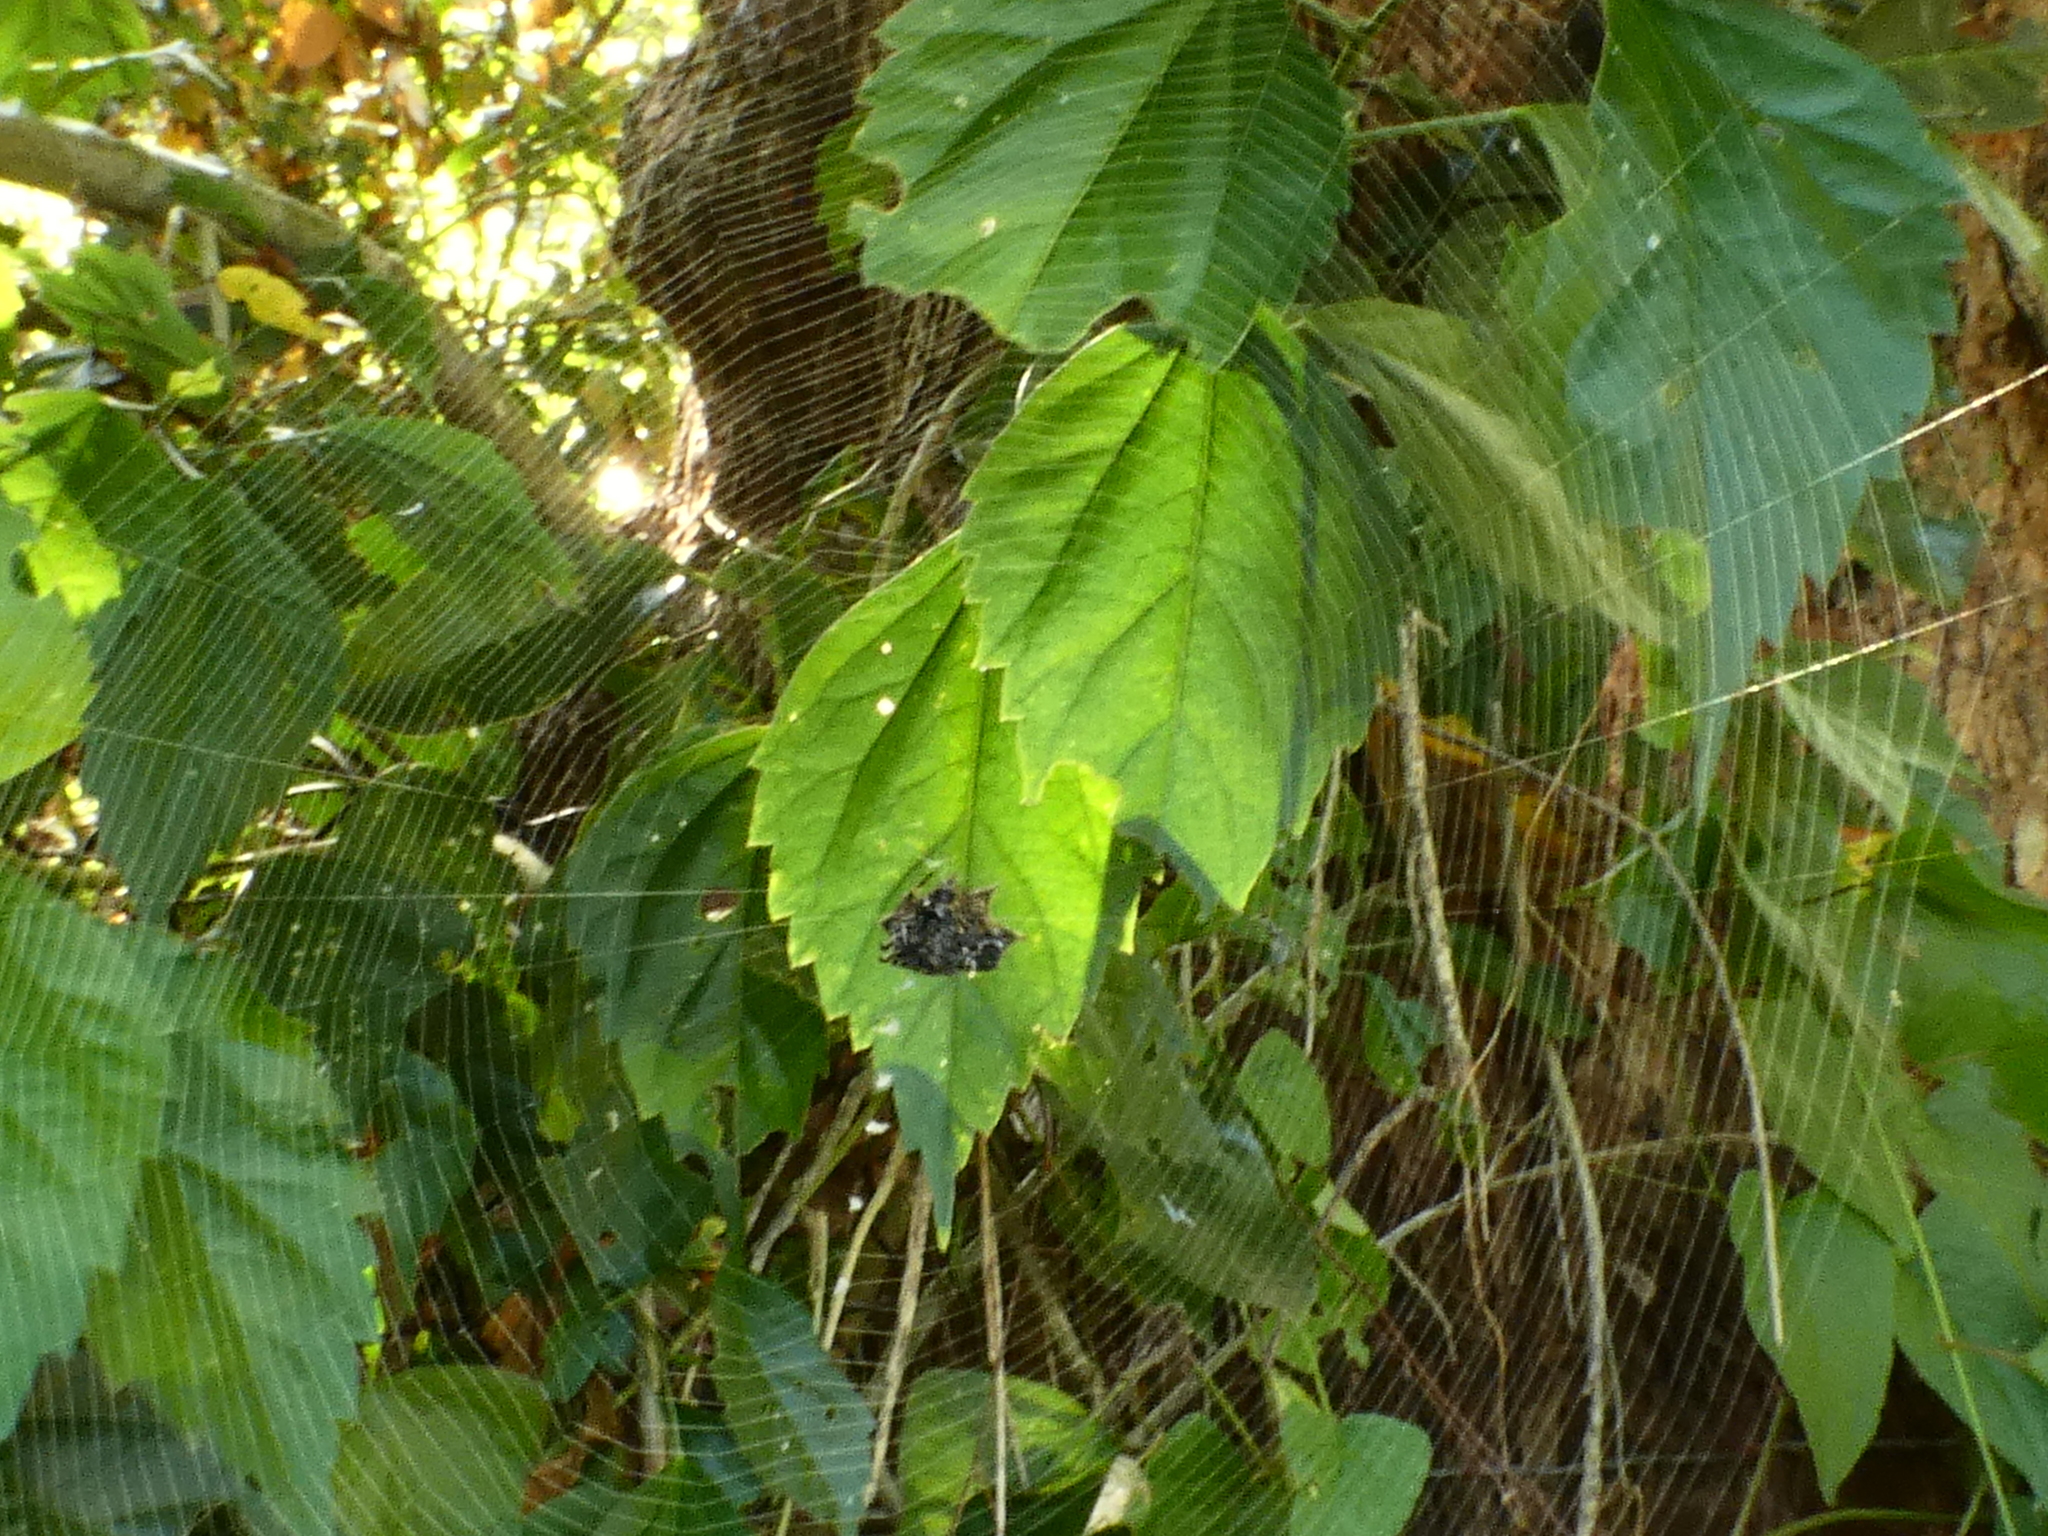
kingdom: Animalia
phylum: Arthropoda
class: Arachnida
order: Araneae
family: Araneidae
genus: Gasteracantha
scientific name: Gasteracantha cancriformis
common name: Orb weavers
